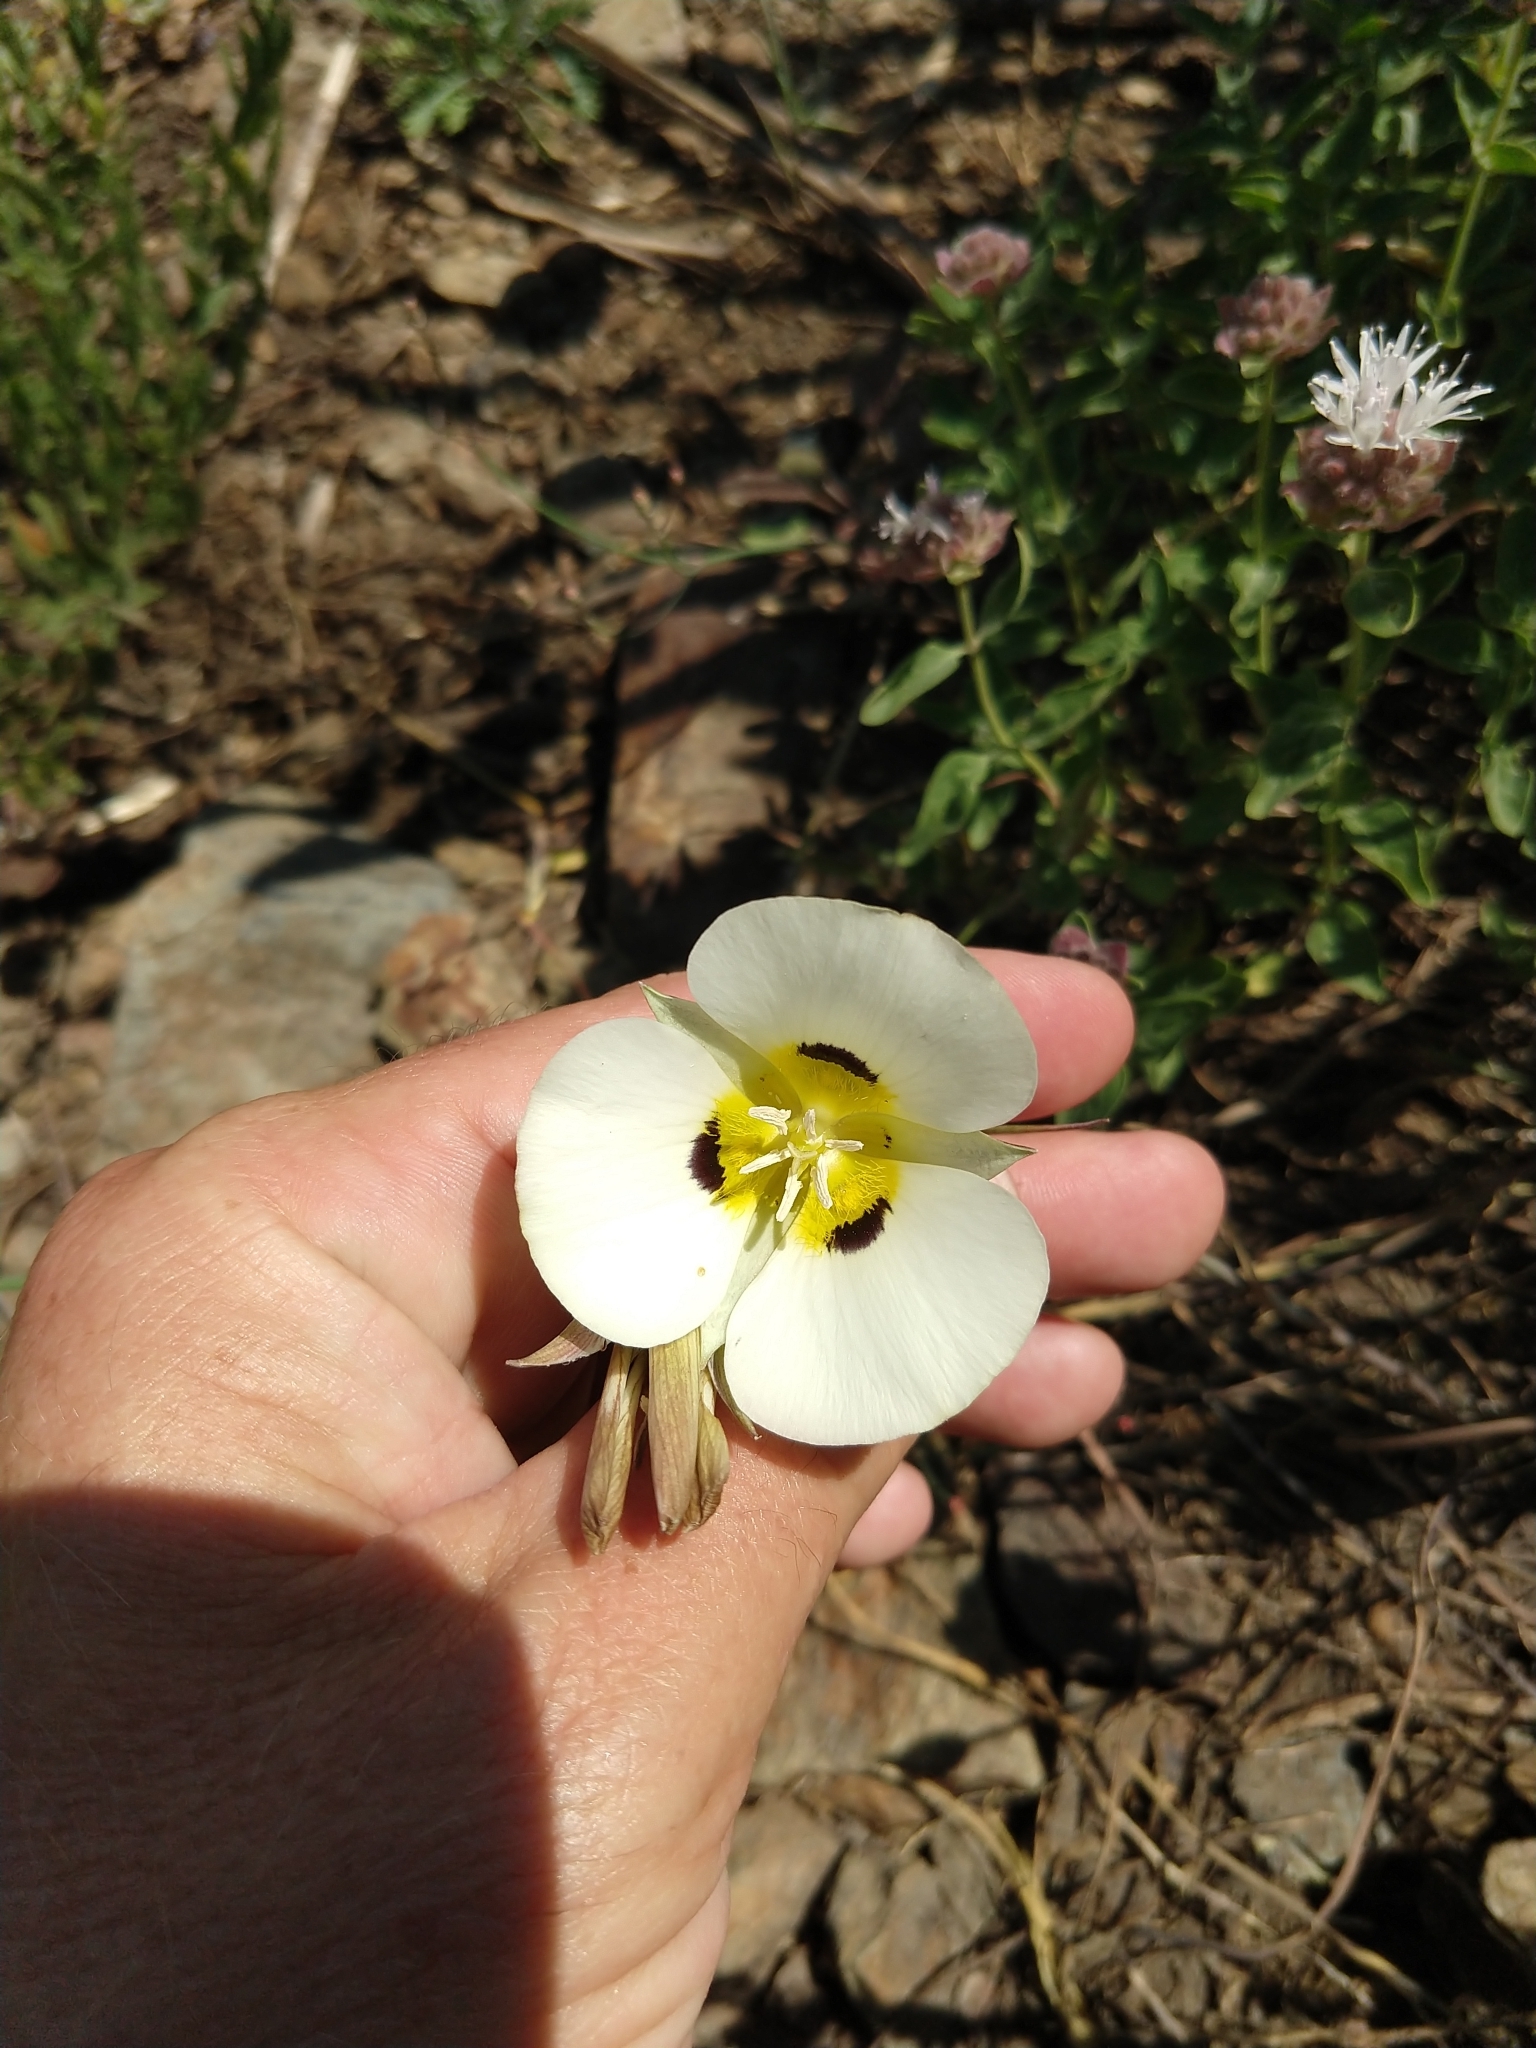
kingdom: Plantae
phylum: Tracheophyta
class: Liliopsida
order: Liliales
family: Liliaceae
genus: Calochortus
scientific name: Calochortus leichtlinii
